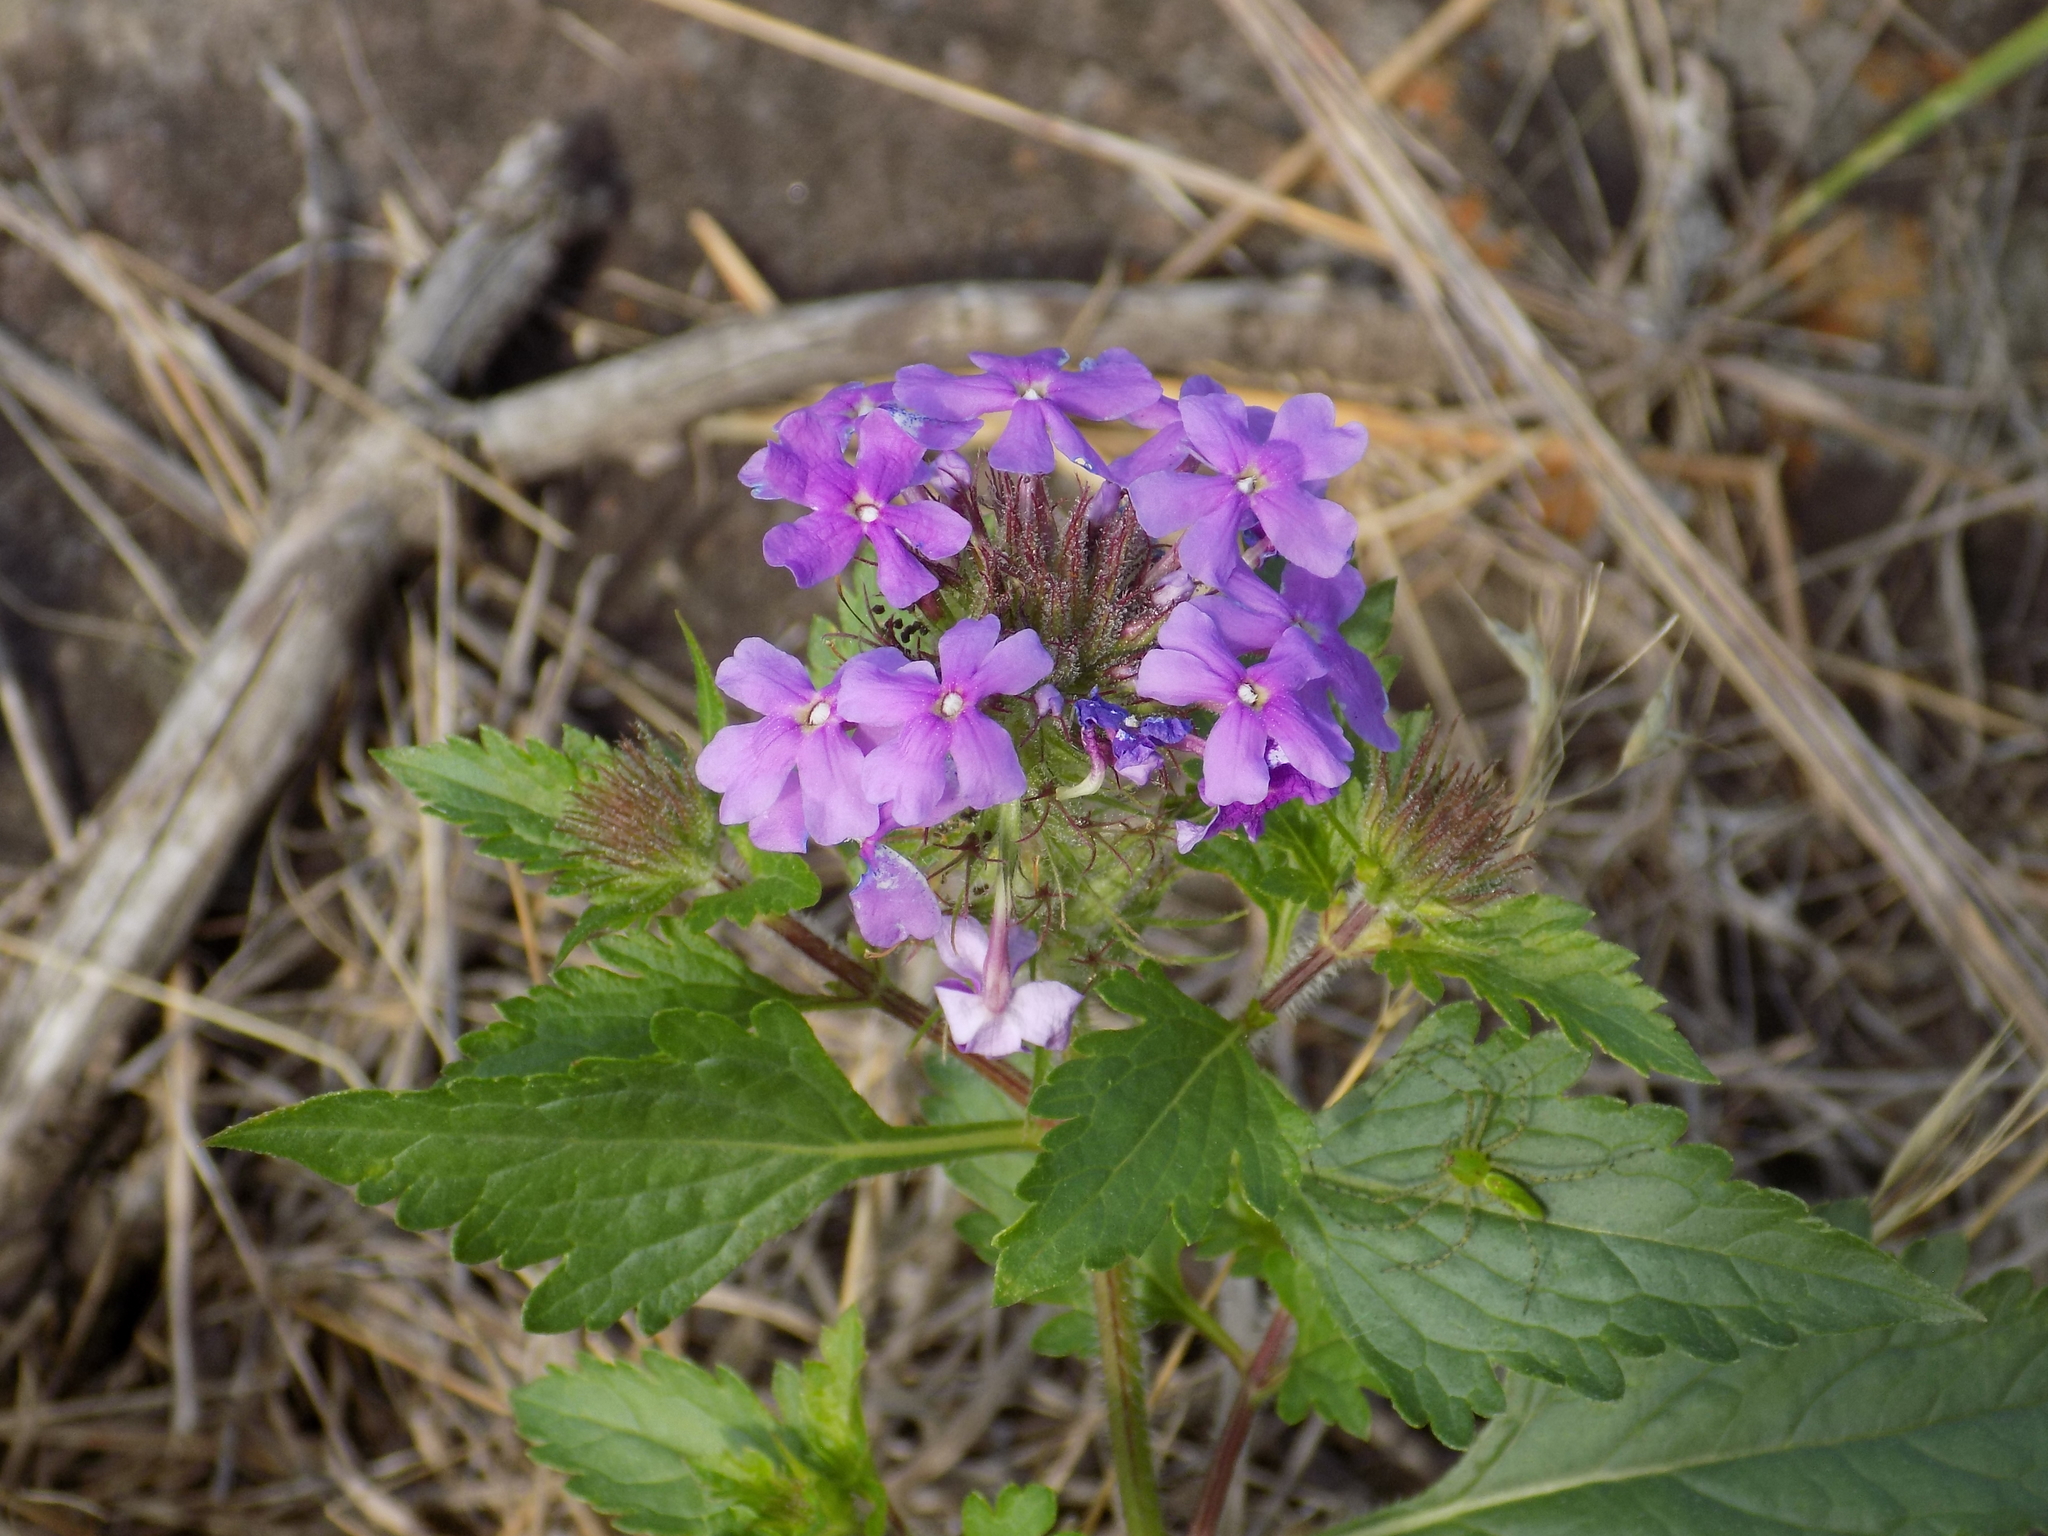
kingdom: Plantae
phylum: Tracheophyta
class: Magnoliopsida
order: Lamiales
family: Verbenaceae
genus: Verbena
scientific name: Verbena canadensis
